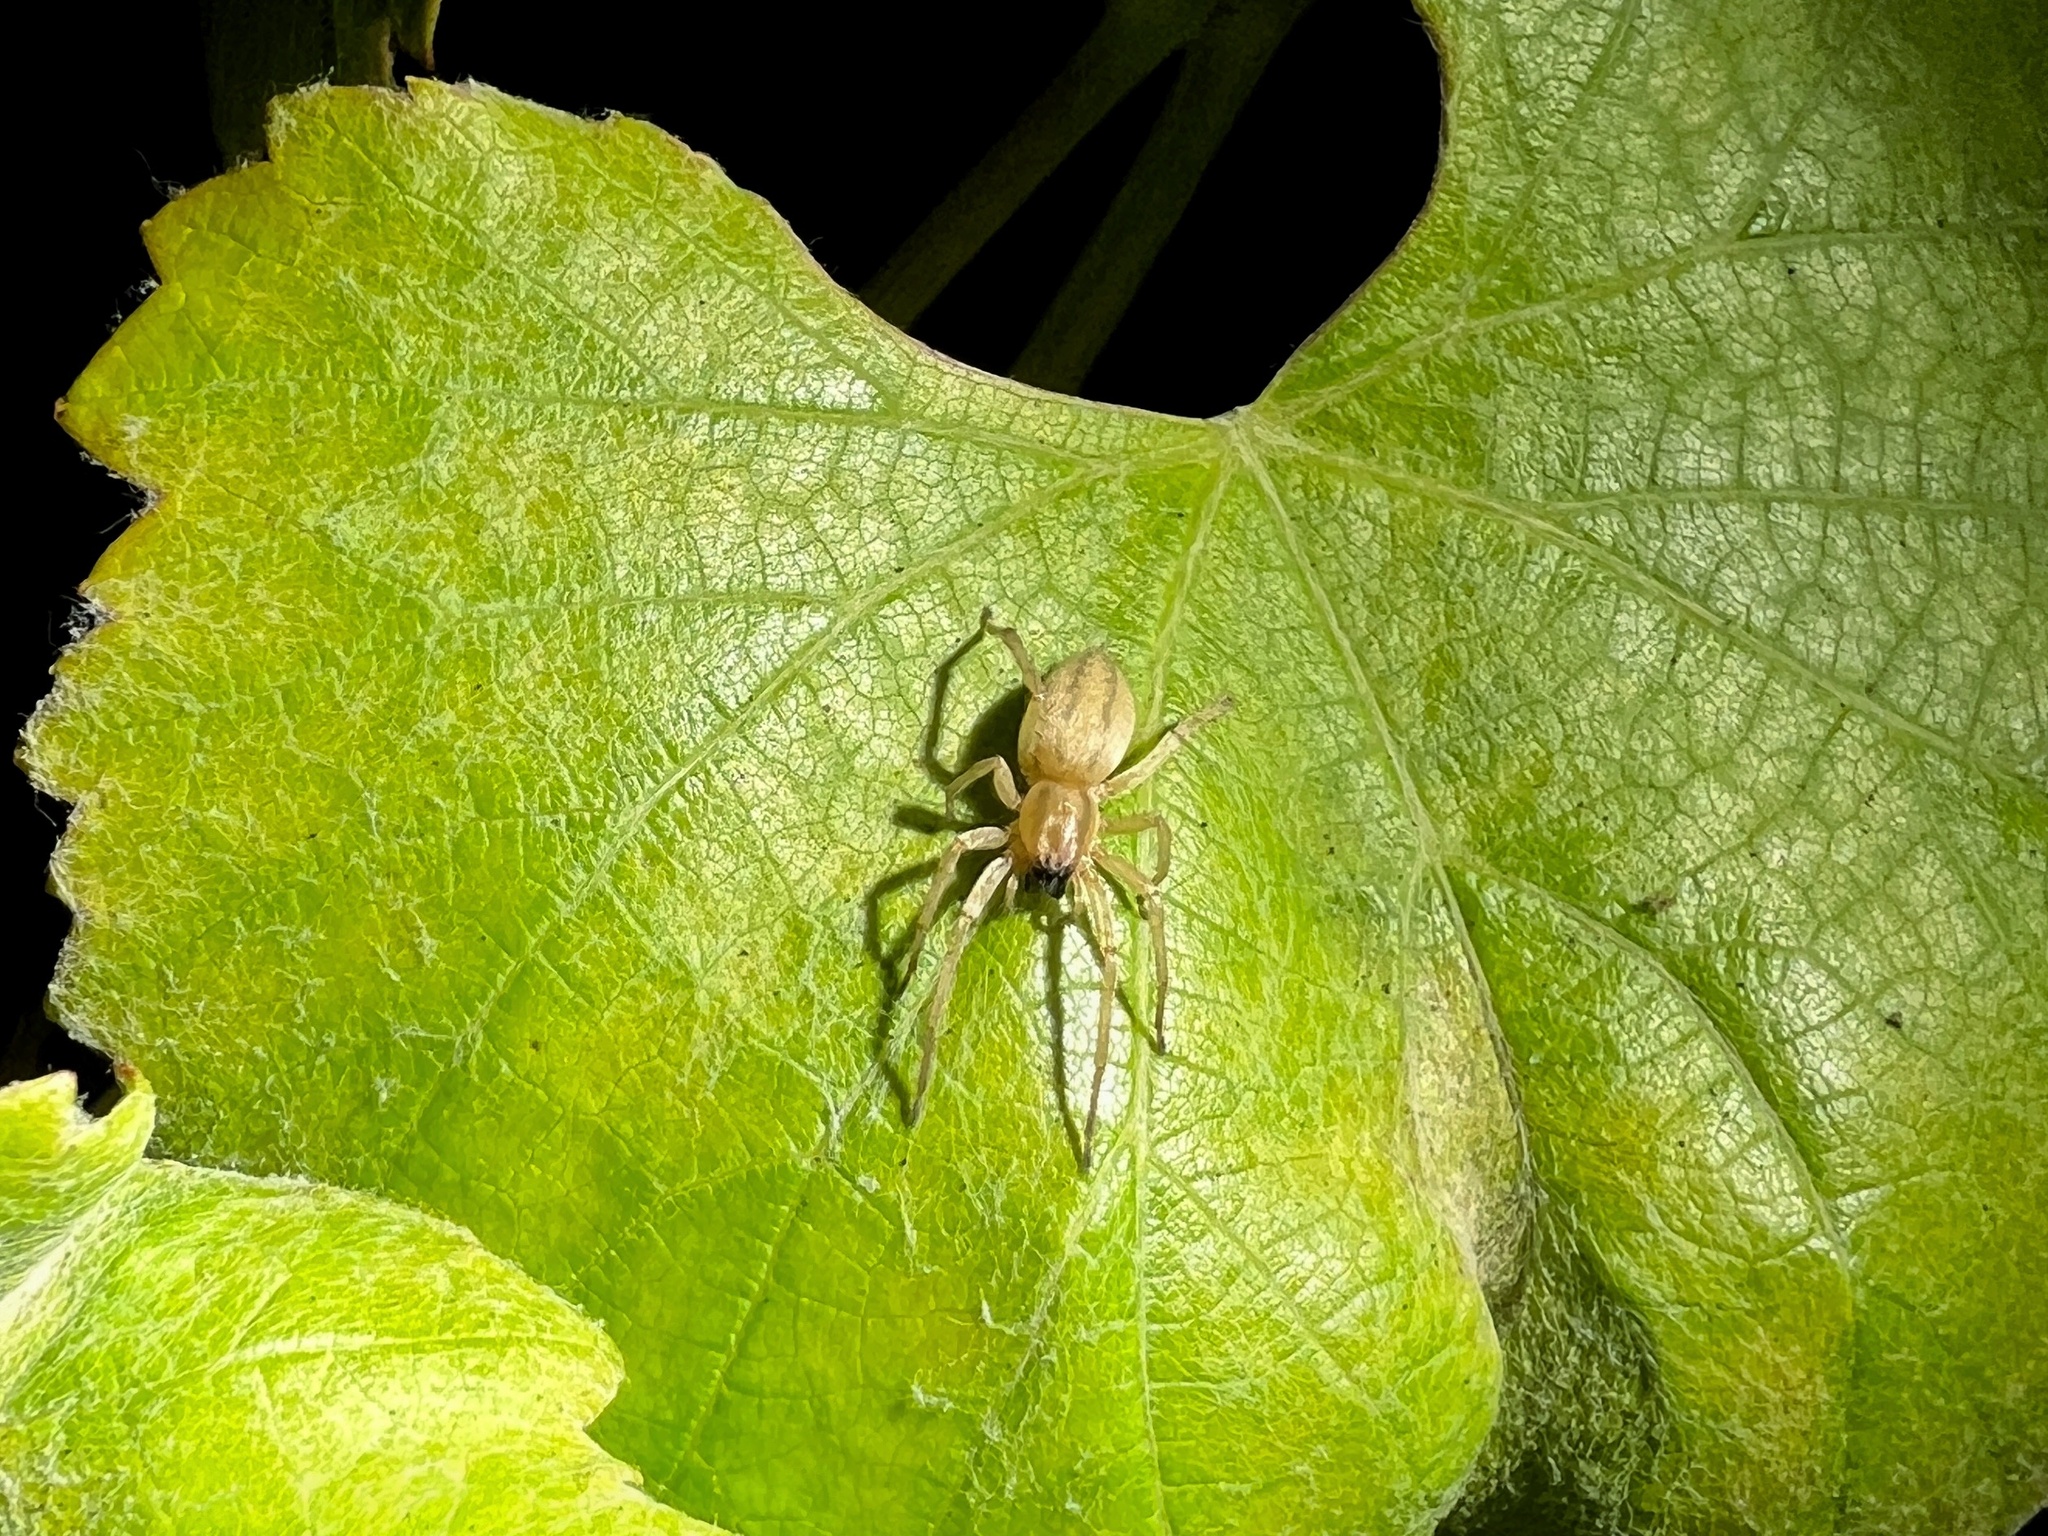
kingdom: Animalia
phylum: Arthropoda
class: Arachnida
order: Araneae
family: Anyphaenidae
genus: Hibana
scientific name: Hibana incursa
